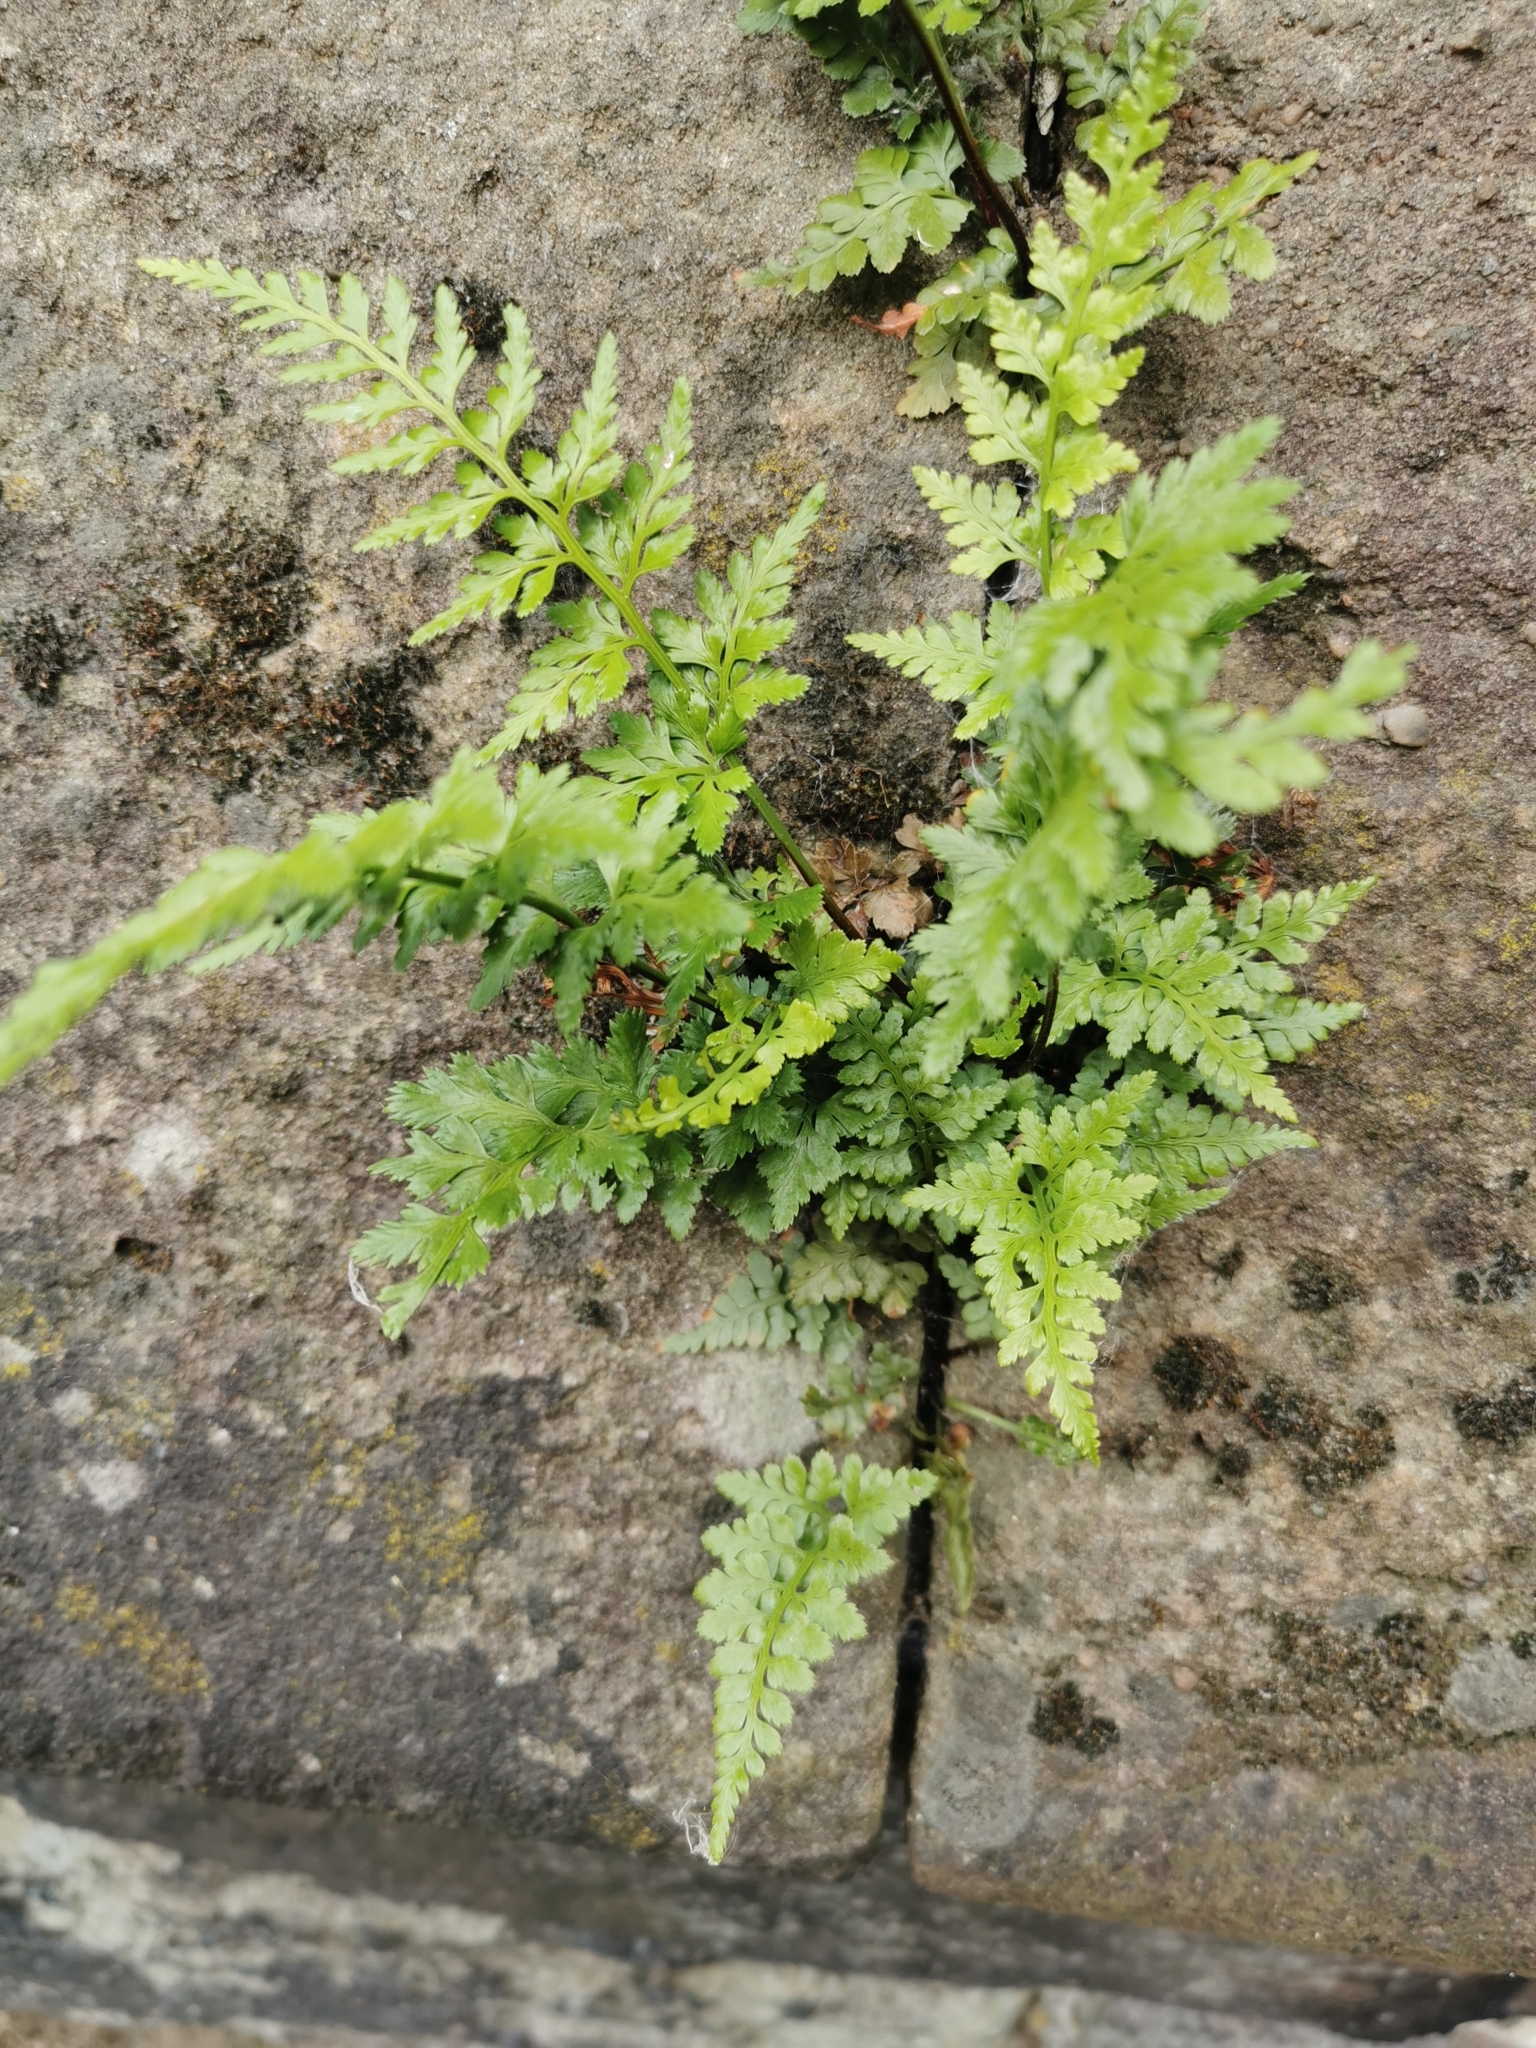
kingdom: Plantae
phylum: Tracheophyta
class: Polypodiopsida
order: Polypodiales
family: Aspleniaceae
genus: Asplenium
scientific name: Asplenium adiantum-nigrum
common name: Black spleenwort
